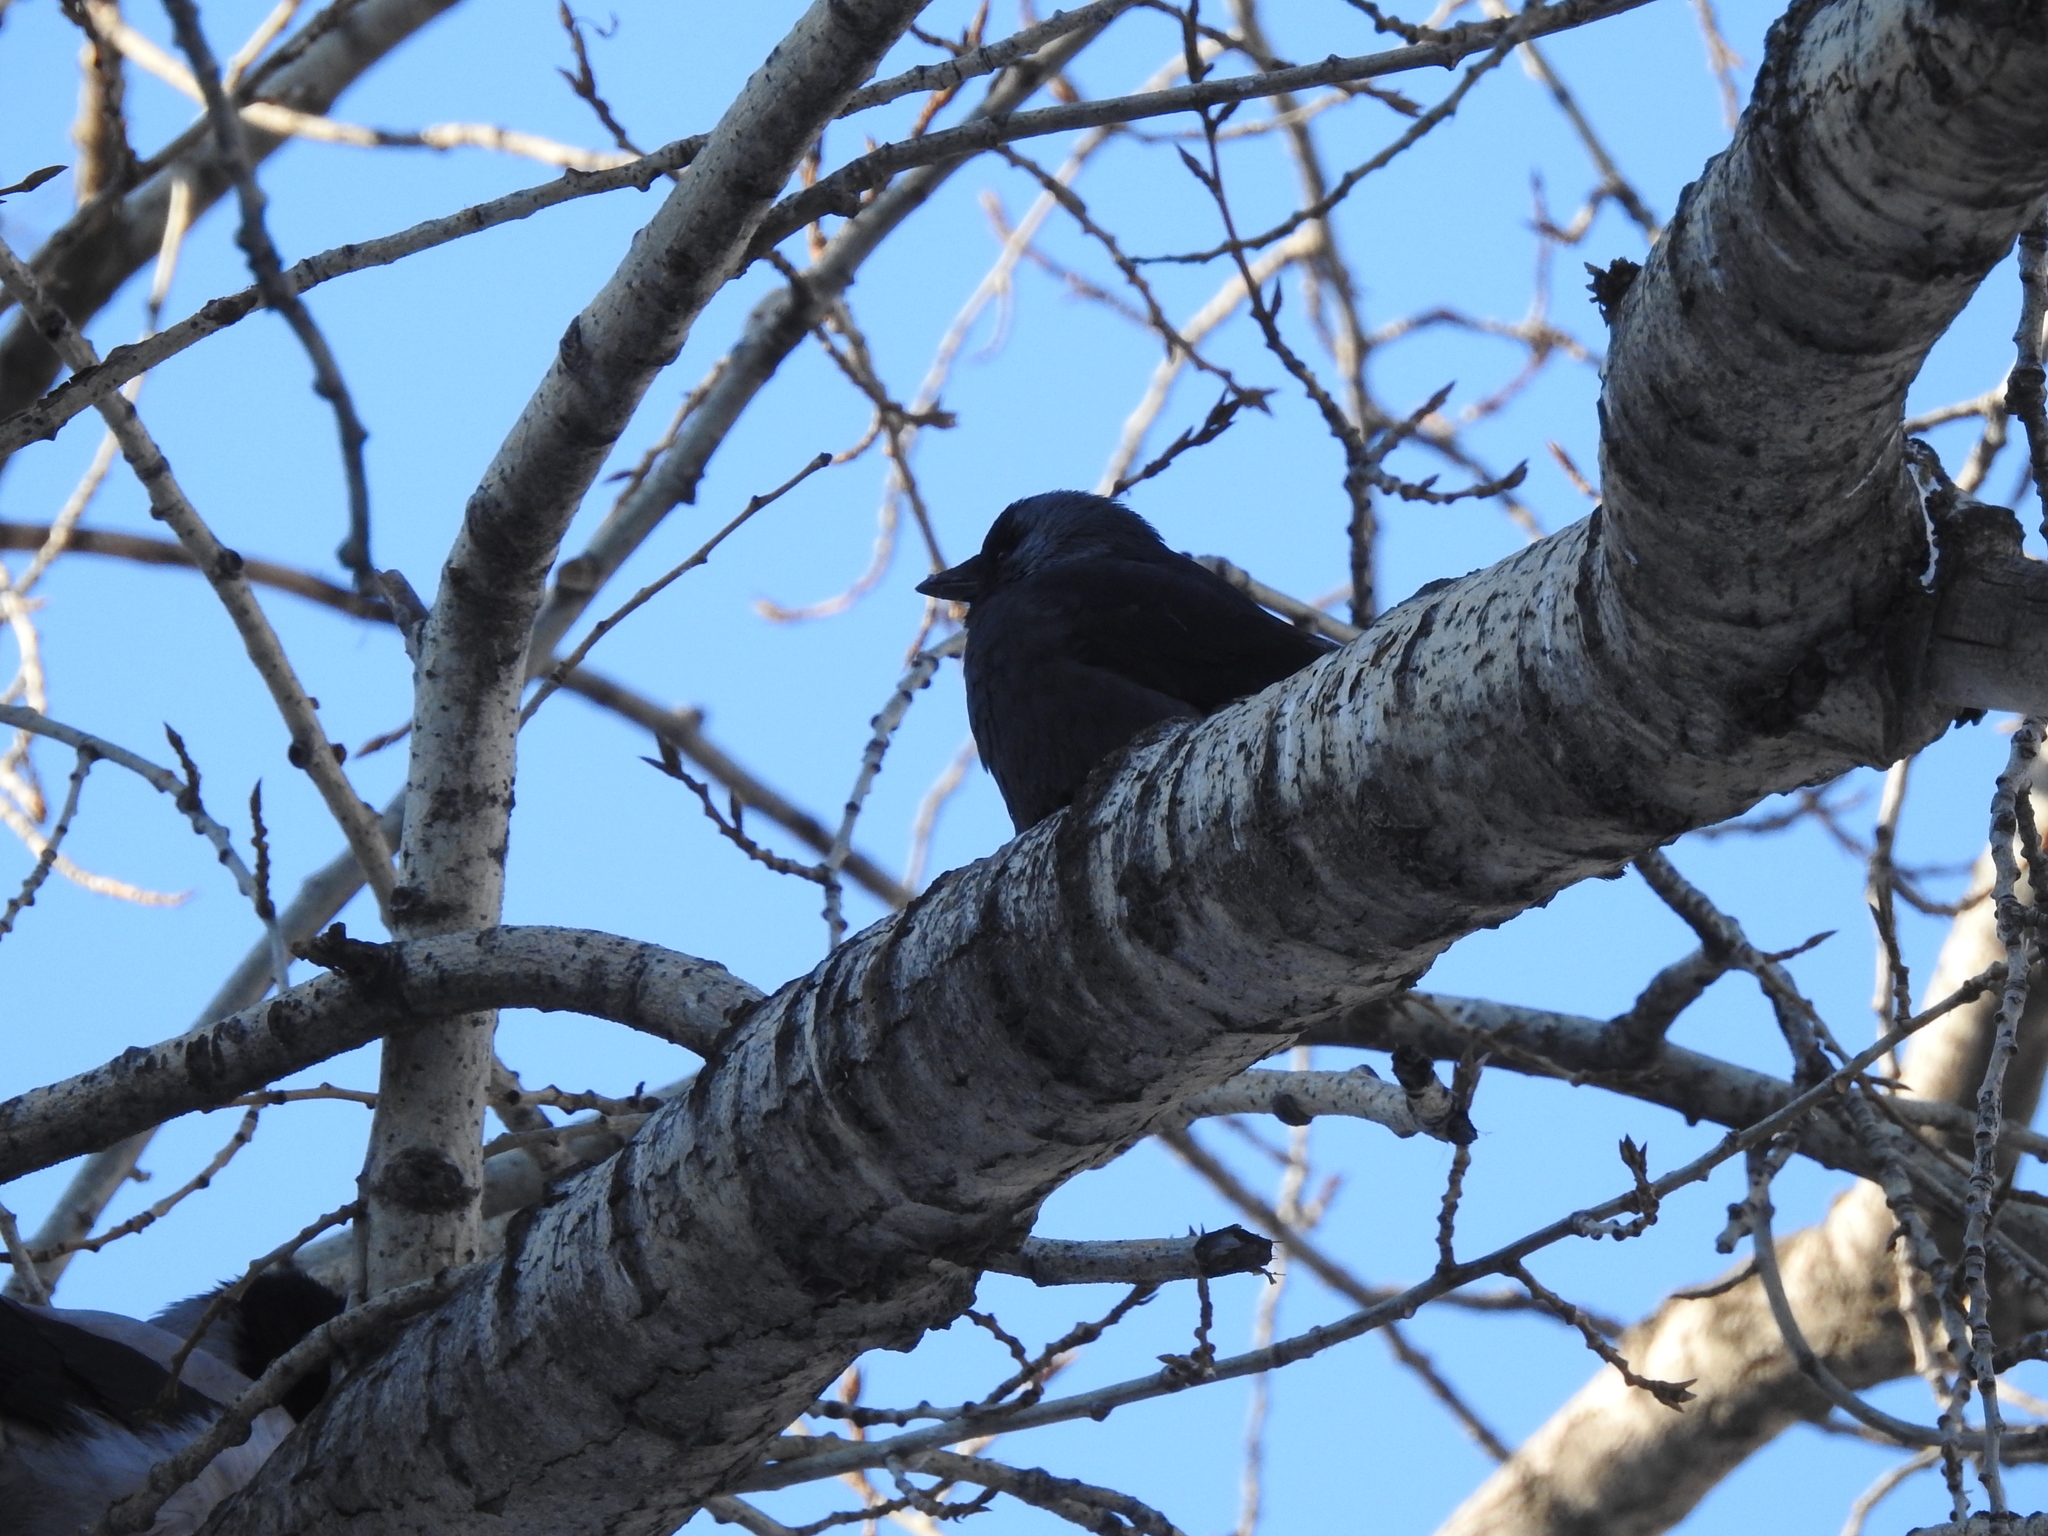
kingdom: Animalia
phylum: Chordata
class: Aves
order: Passeriformes
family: Corvidae
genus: Coloeus
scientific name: Coloeus monedula
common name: Western jackdaw
